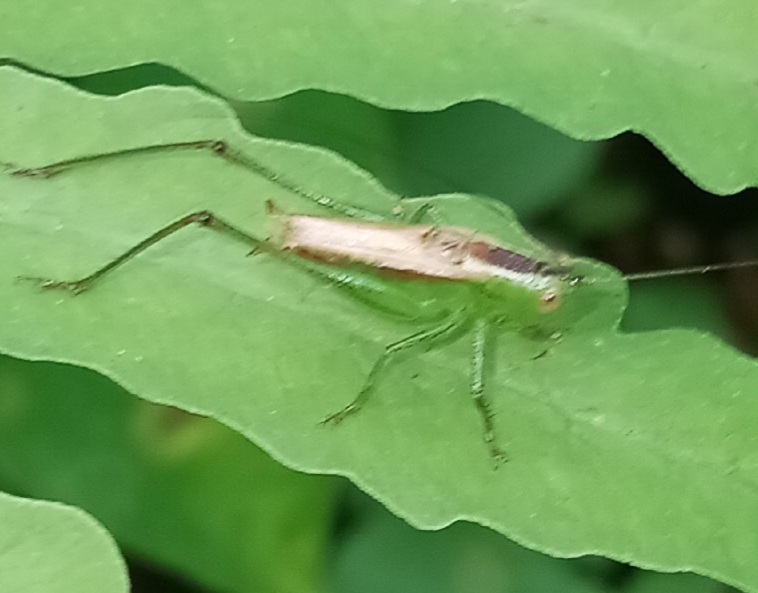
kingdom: Animalia
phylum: Arthropoda
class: Insecta
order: Orthoptera
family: Tettigoniidae
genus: Conocephalus
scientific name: Conocephalus brevipennis
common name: Short-winged meadow katydid
